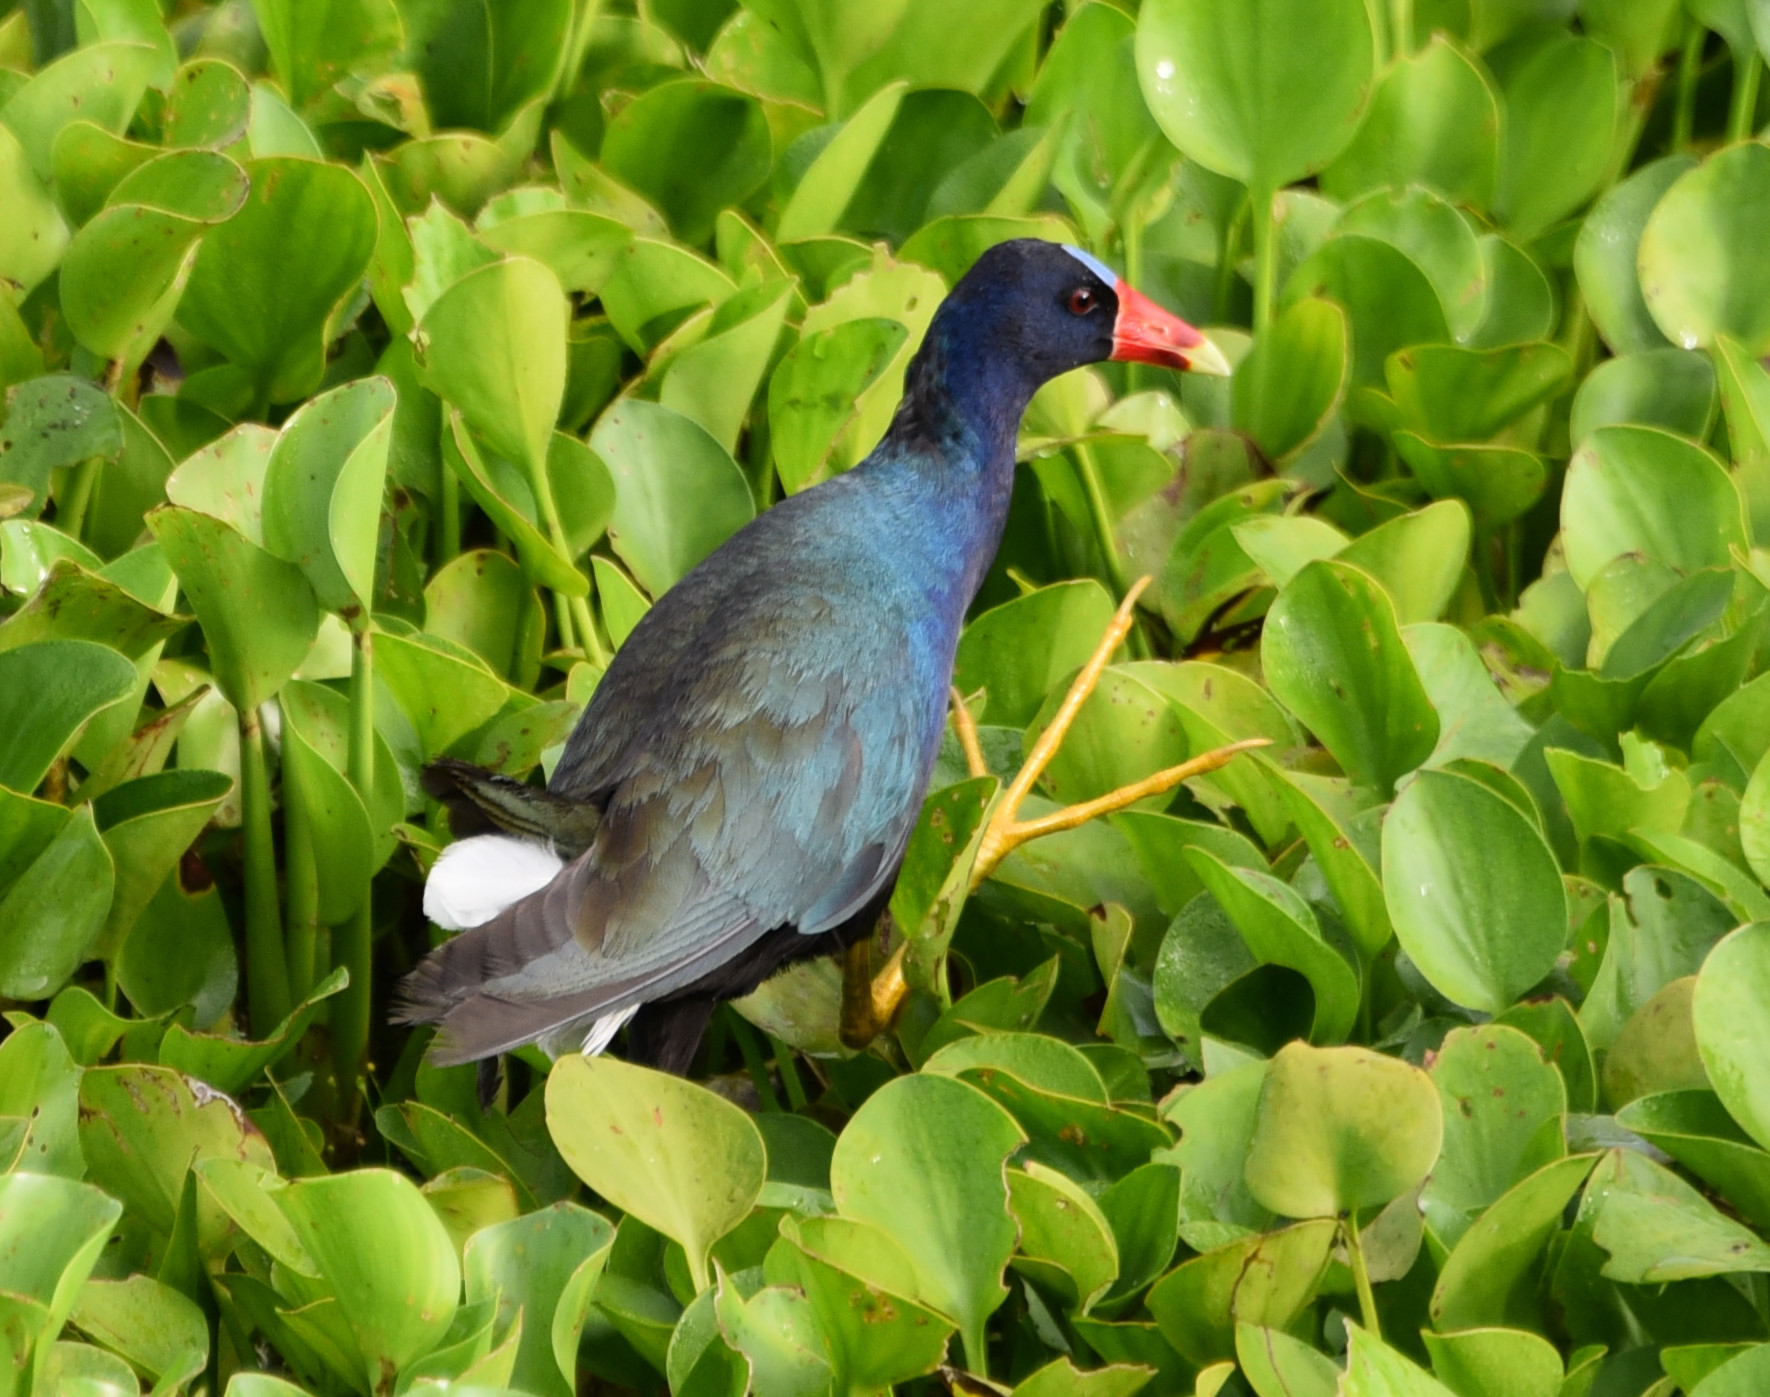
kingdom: Animalia
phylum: Chordata
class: Aves
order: Gruiformes
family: Rallidae
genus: Porphyrio
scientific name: Porphyrio martinica
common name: Purple gallinule
